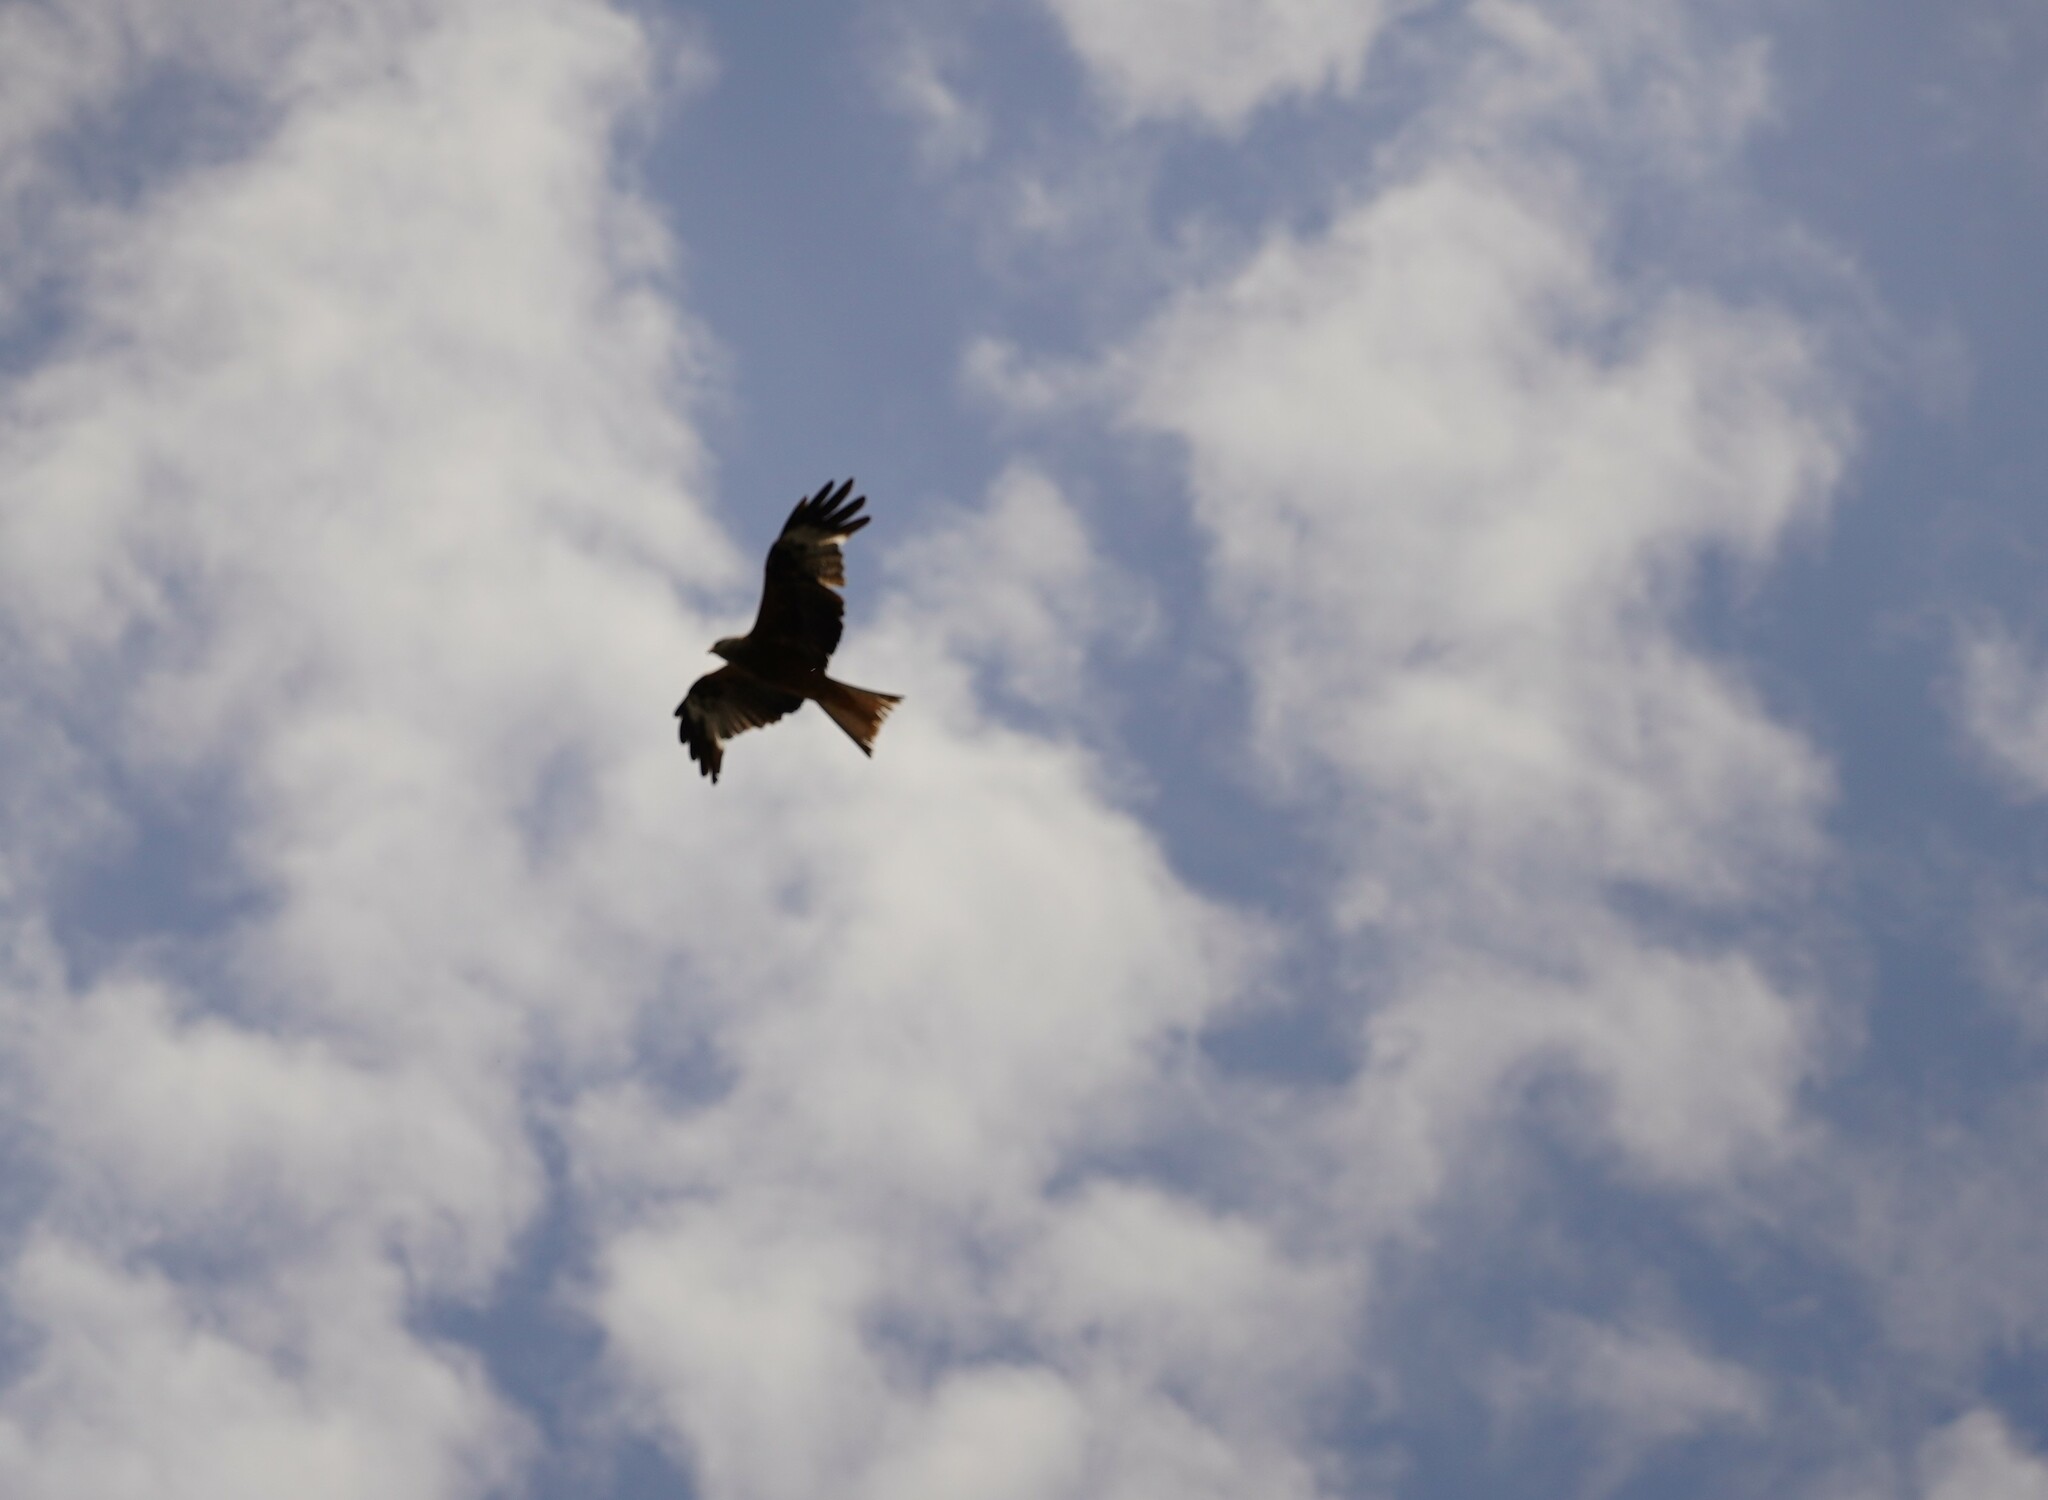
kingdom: Animalia
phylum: Chordata
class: Aves
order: Accipitriformes
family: Accipitridae
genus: Milvus
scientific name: Milvus milvus
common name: Red kite
